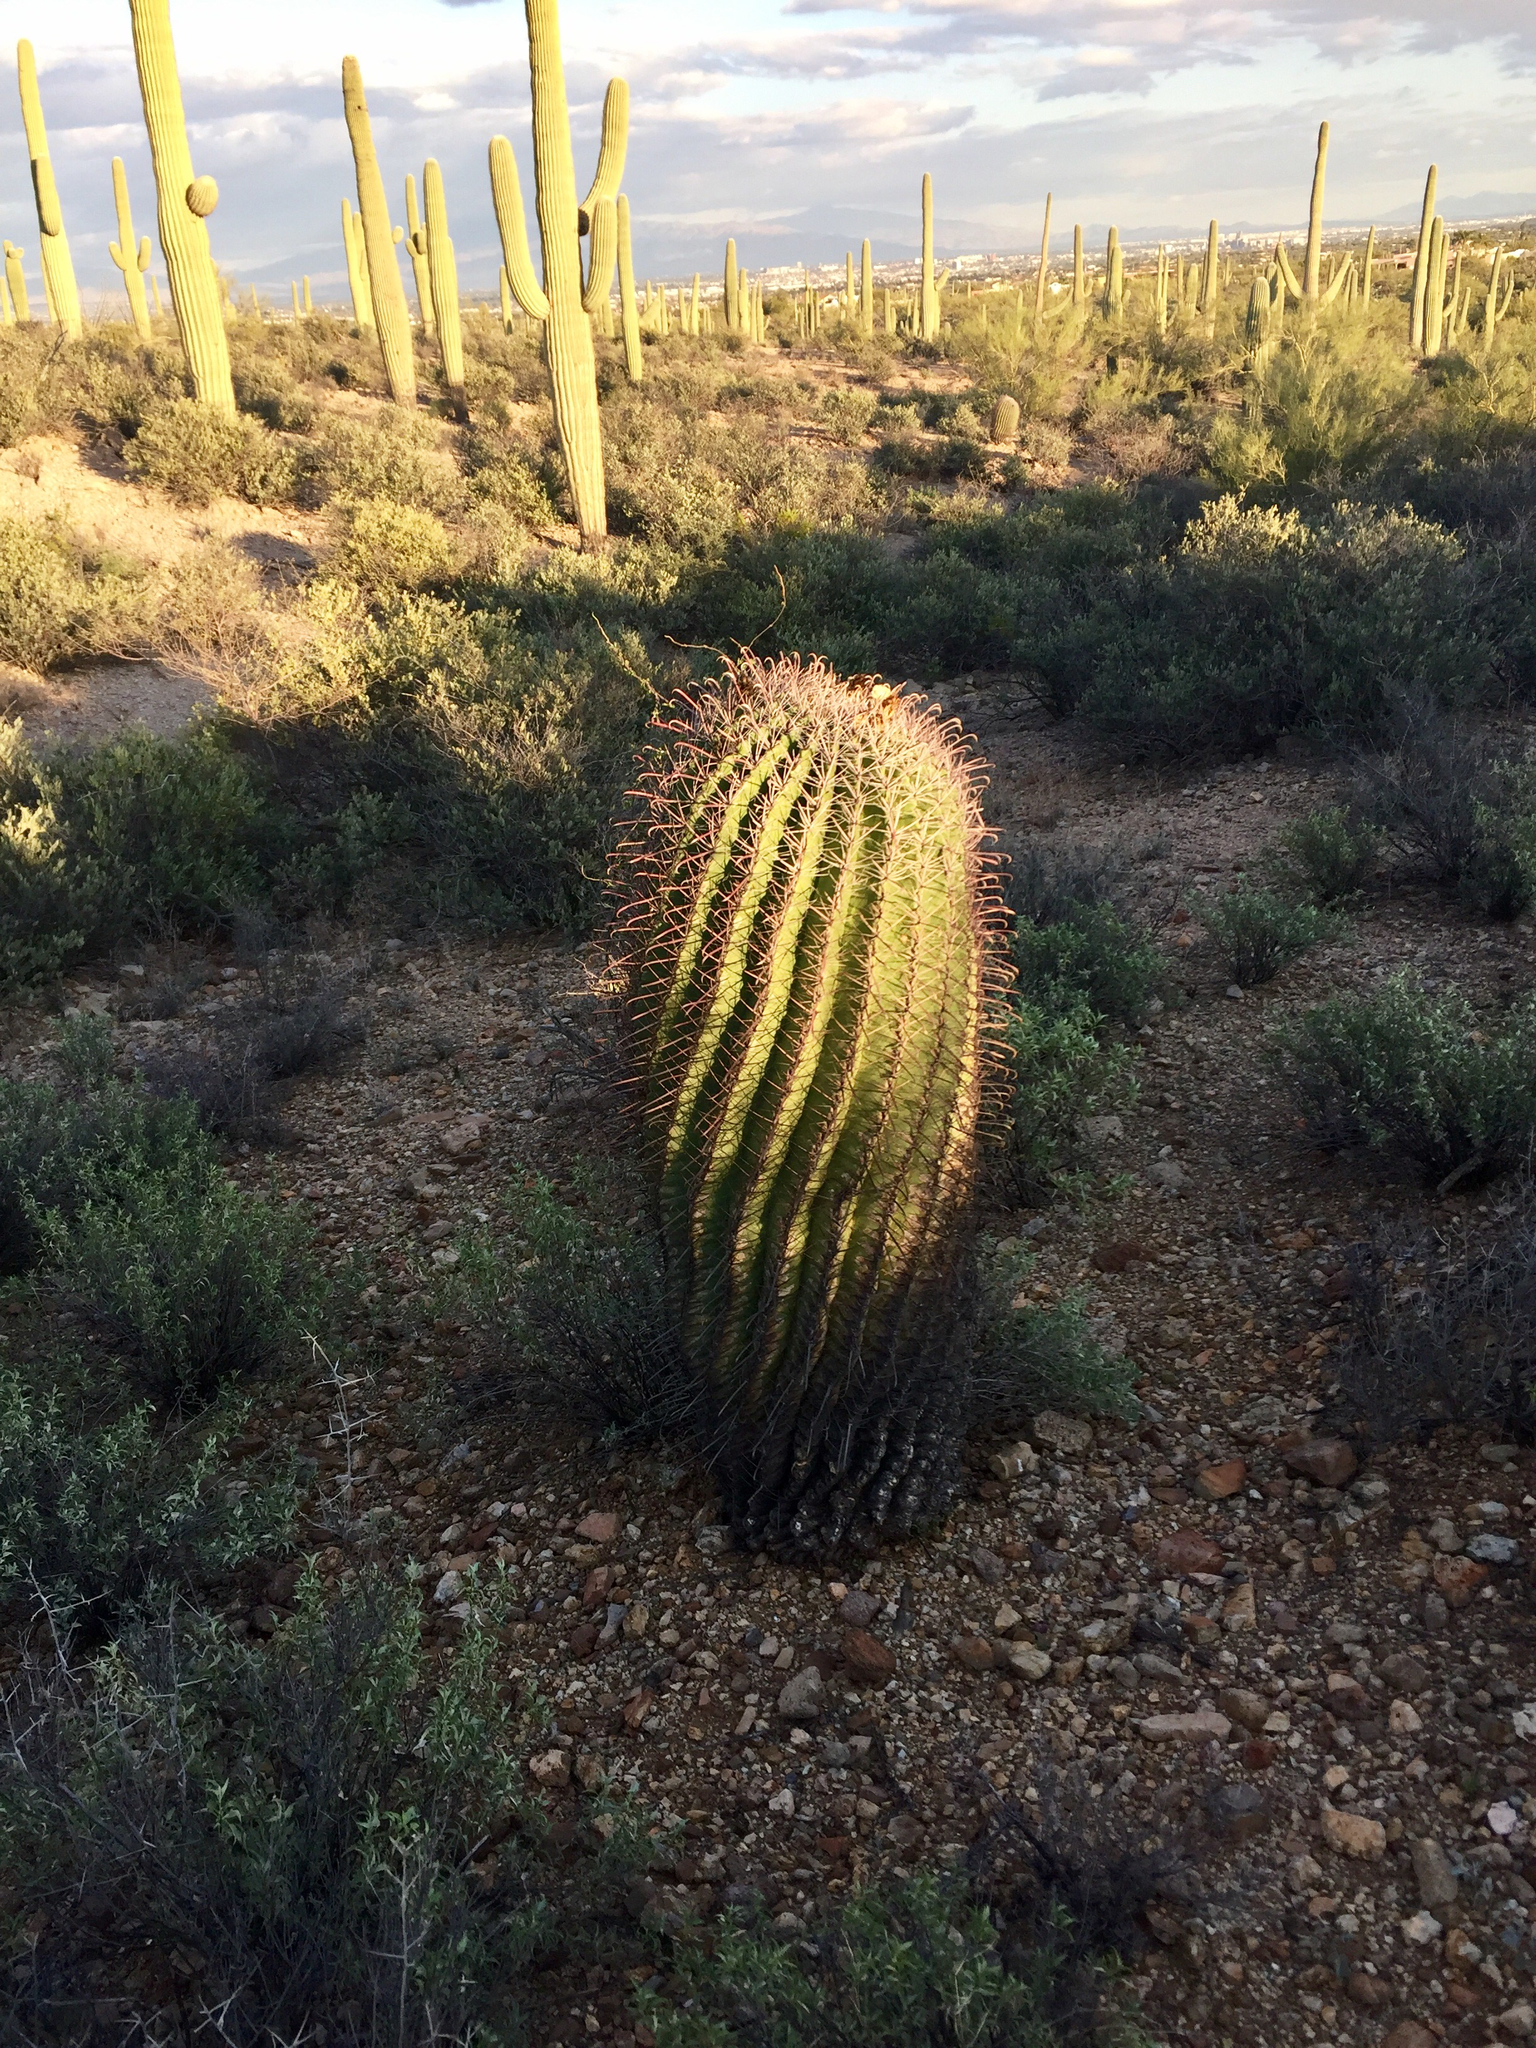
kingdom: Plantae
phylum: Tracheophyta
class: Magnoliopsida
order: Caryophyllales
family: Cactaceae
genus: Ferocactus
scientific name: Ferocactus wislizeni
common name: Candy barrel cactus
